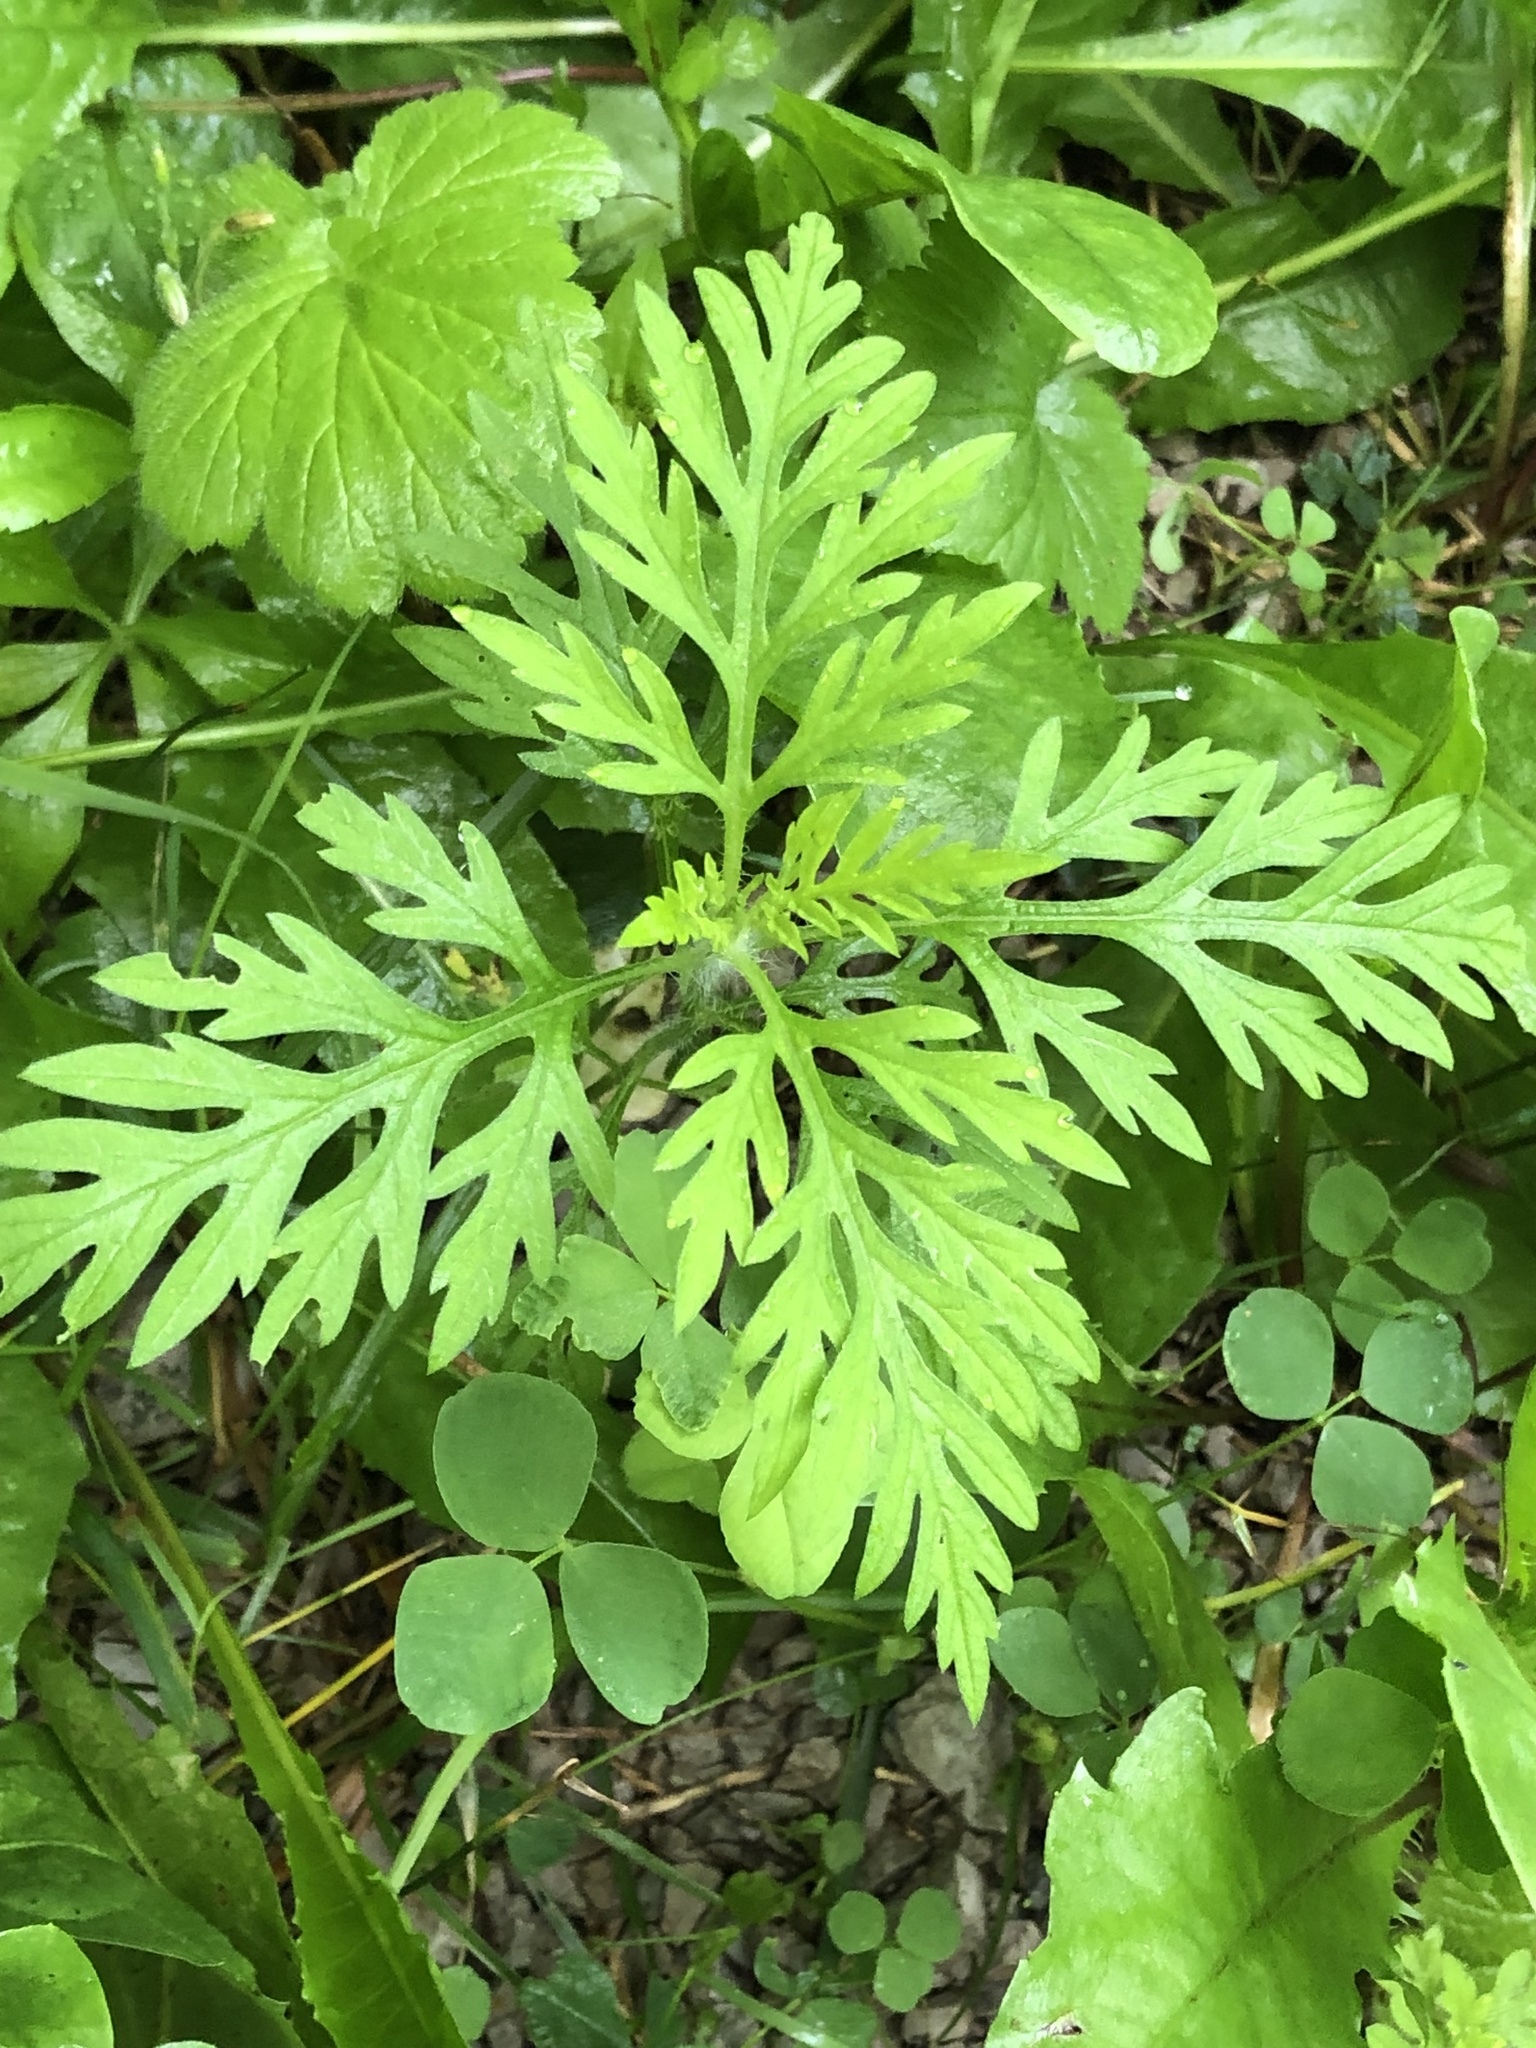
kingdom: Plantae
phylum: Tracheophyta
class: Magnoliopsida
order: Asterales
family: Asteraceae
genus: Ambrosia
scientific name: Ambrosia artemisiifolia
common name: Annual ragweed
